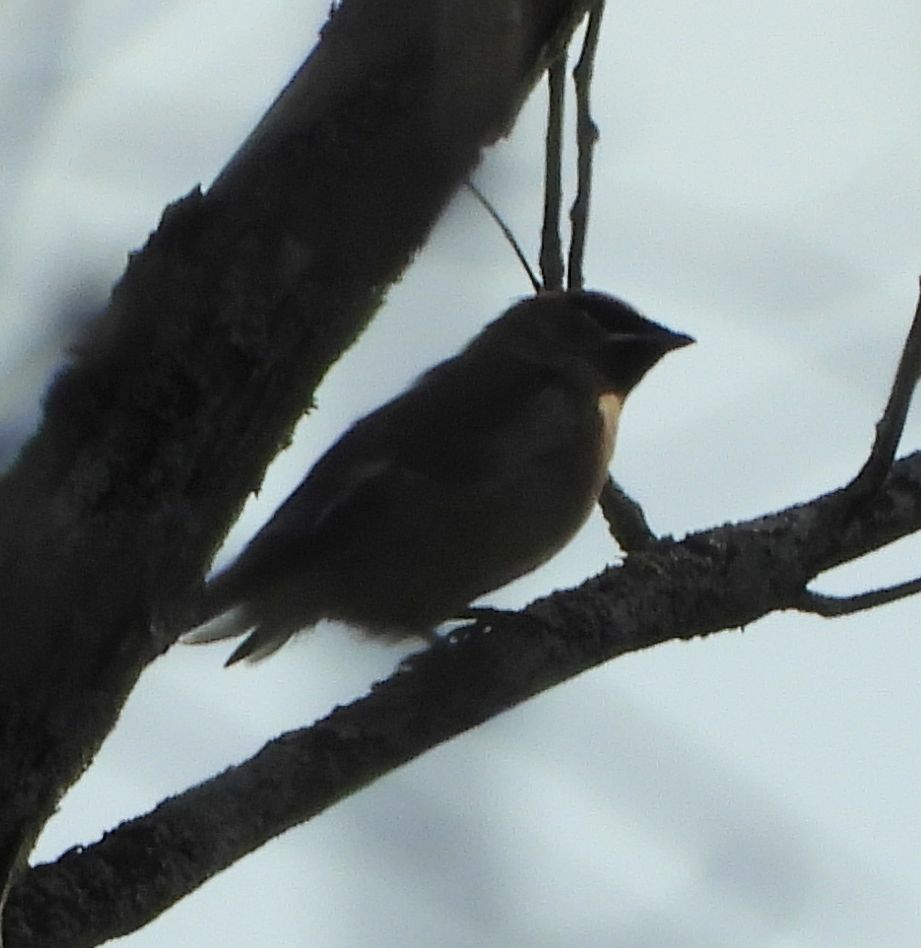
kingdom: Animalia
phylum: Chordata
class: Aves
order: Passeriformes
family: Bombycillidae
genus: Bombycilla
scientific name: Bombycilla cedrorum
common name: Cedar waxwing
